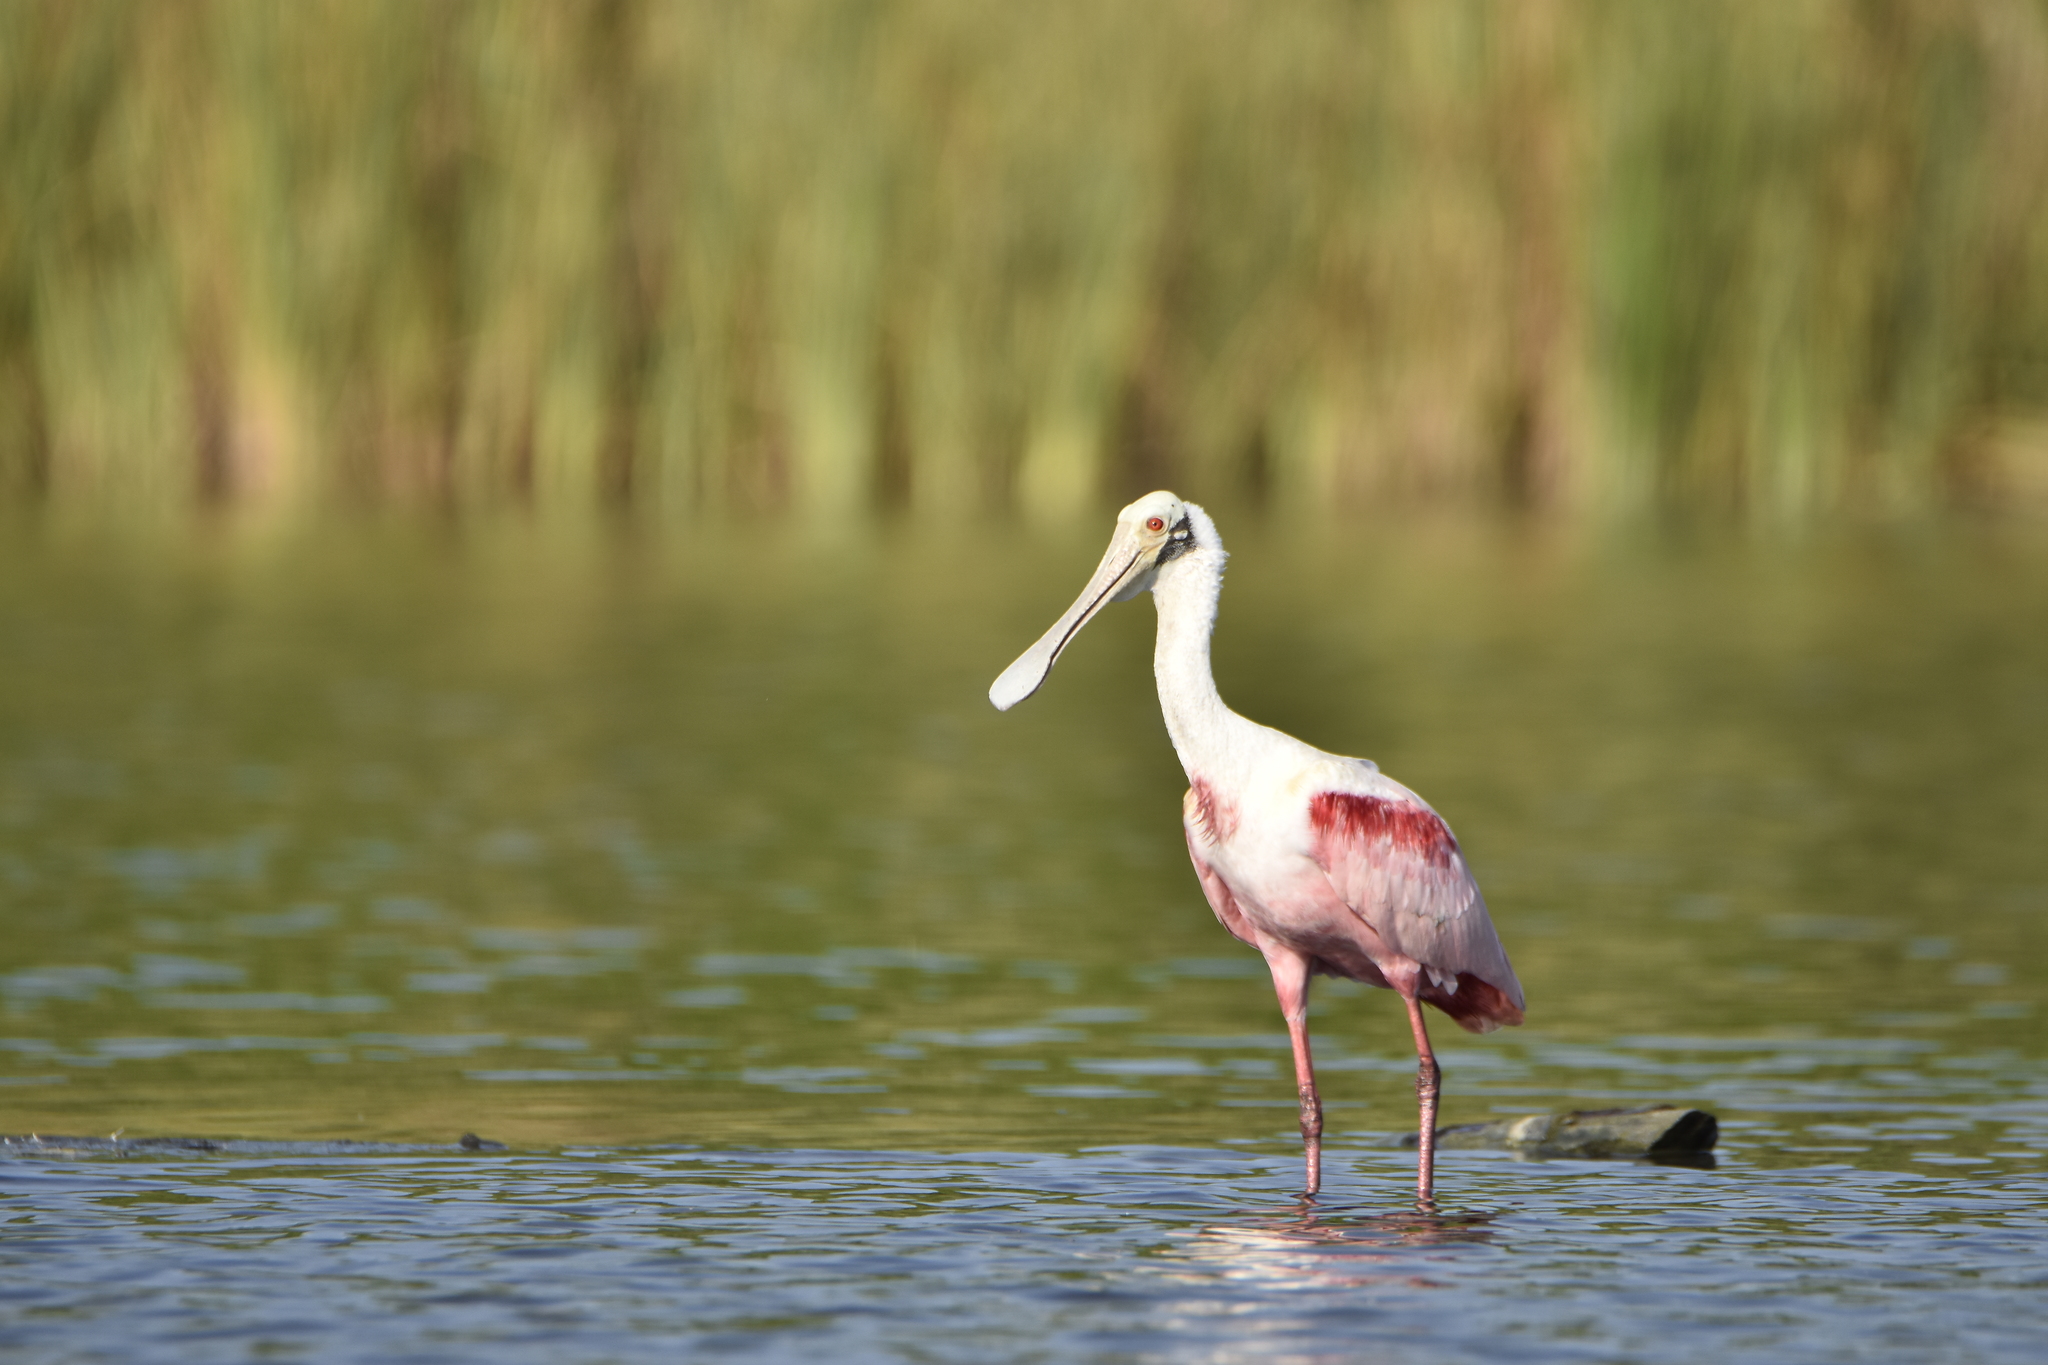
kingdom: Animalia
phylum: Chordata
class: Aves
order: Pelecaniformes
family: Threskiornithidae
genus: Platalea
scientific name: Platalea ajaja
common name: Roseate spoonbill
